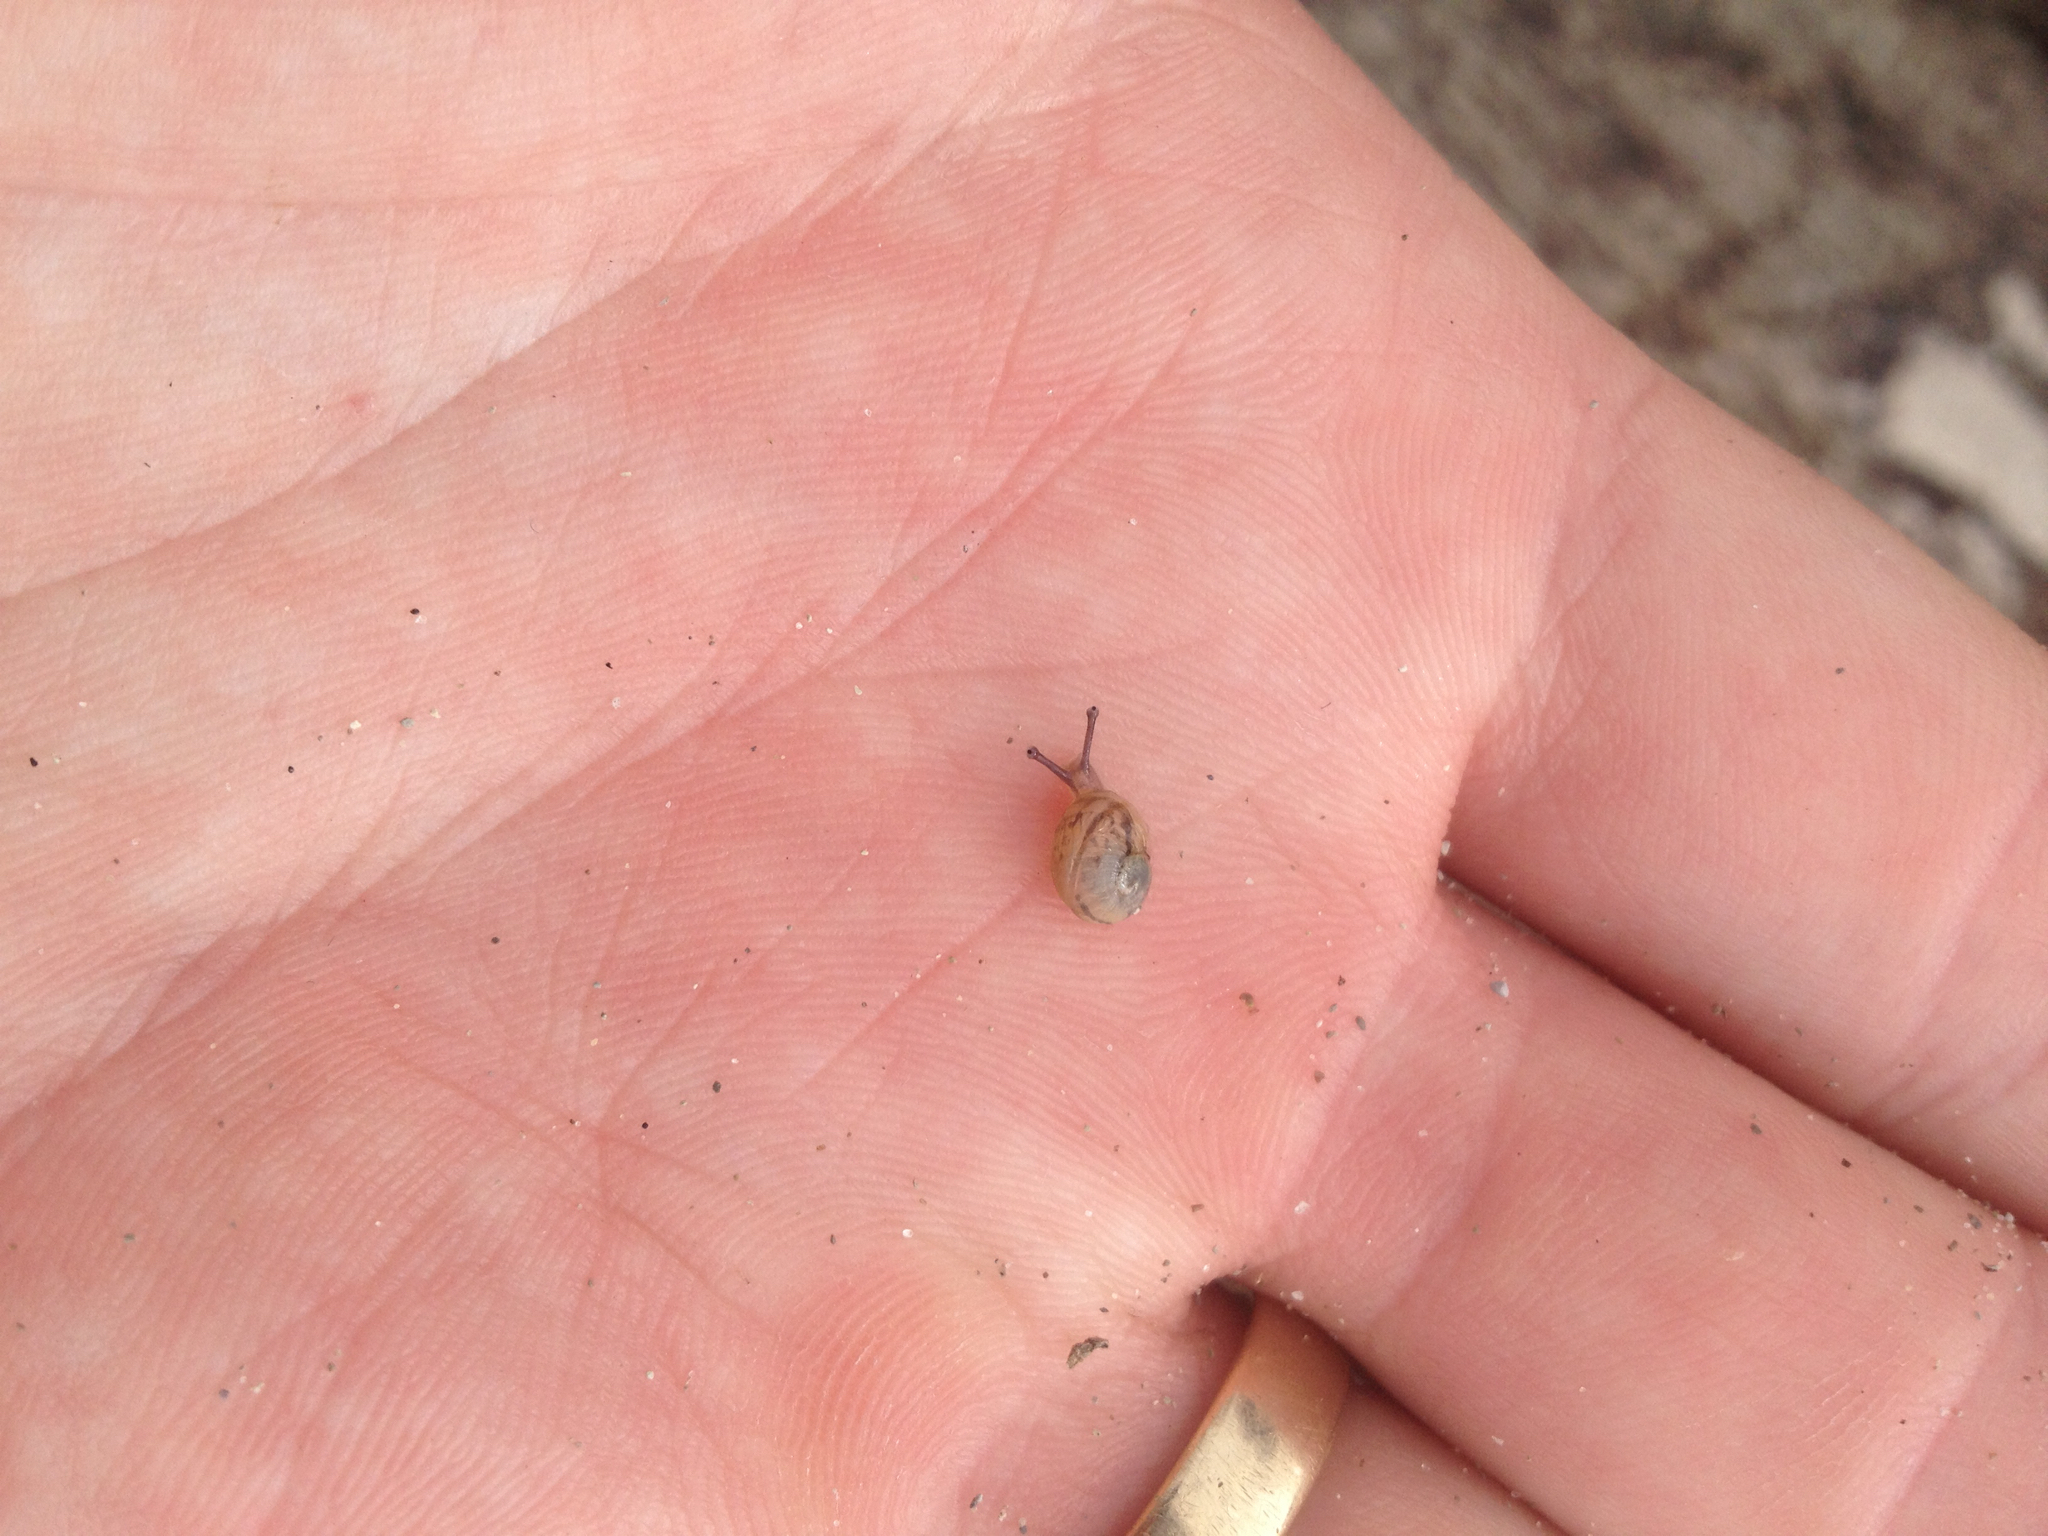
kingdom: Animalia
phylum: Mollusca
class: Gastropoda
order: Stylommatophora
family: Helicidae
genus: Cornu
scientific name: Cornu aspersum
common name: Brown garden snail
